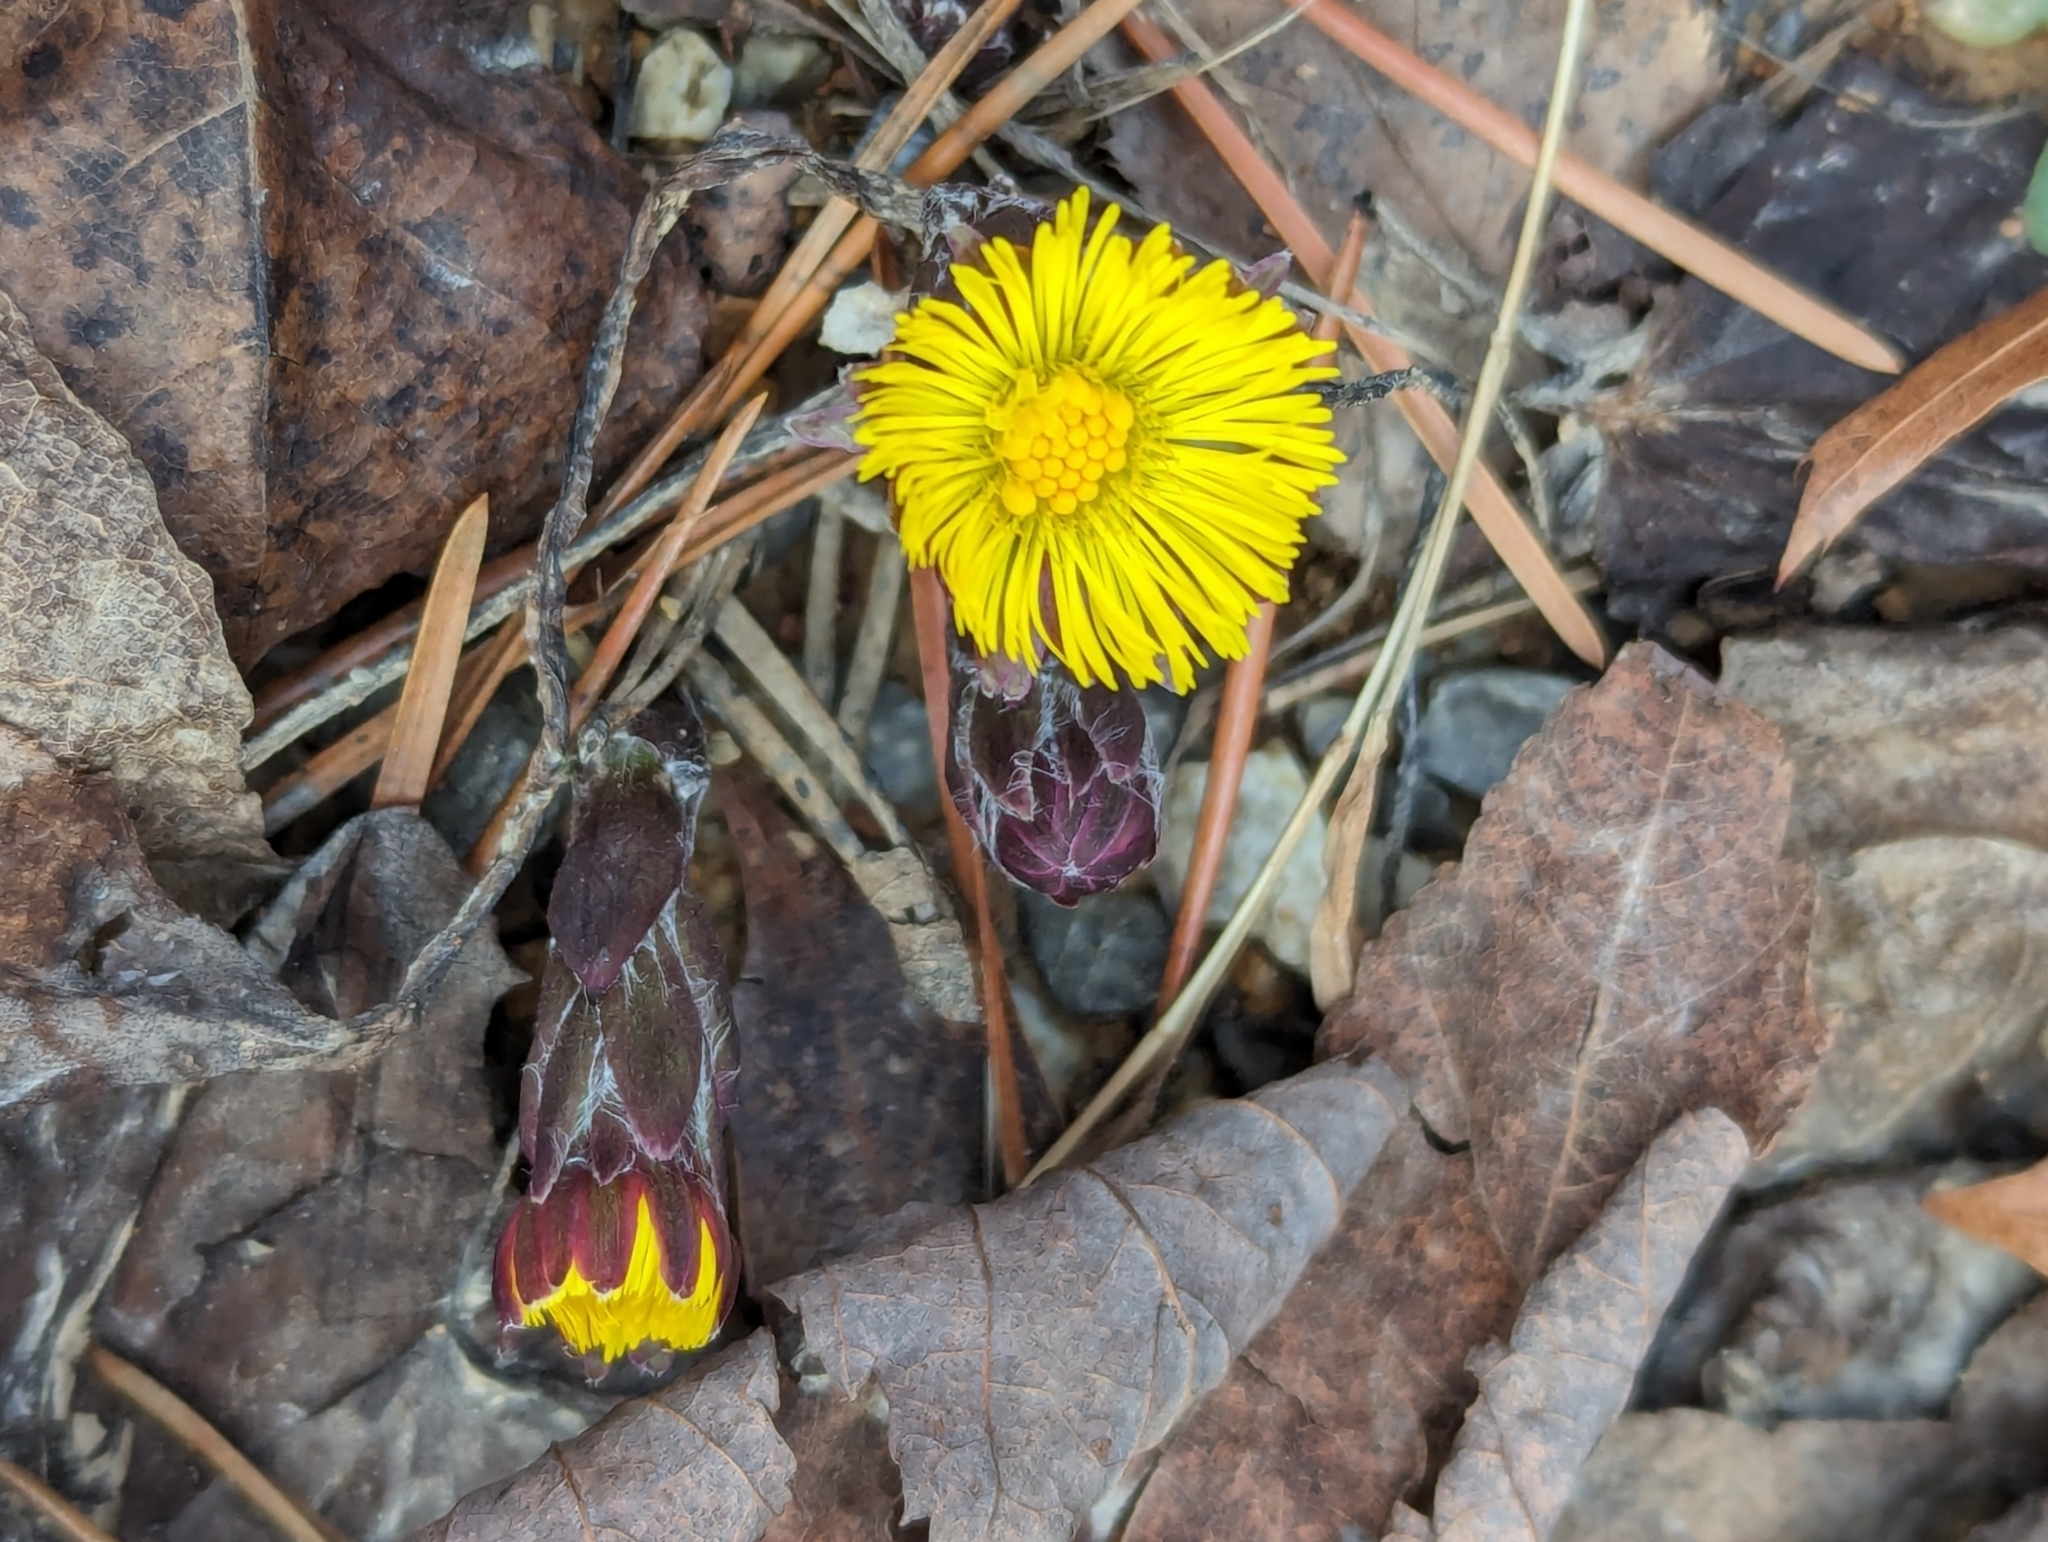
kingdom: Plantae
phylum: Tracheophyta
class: Magnoliopsida
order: Asterales
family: Asteraceae
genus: Tussilago
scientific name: Tussilago farfara
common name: Coltsfoot
